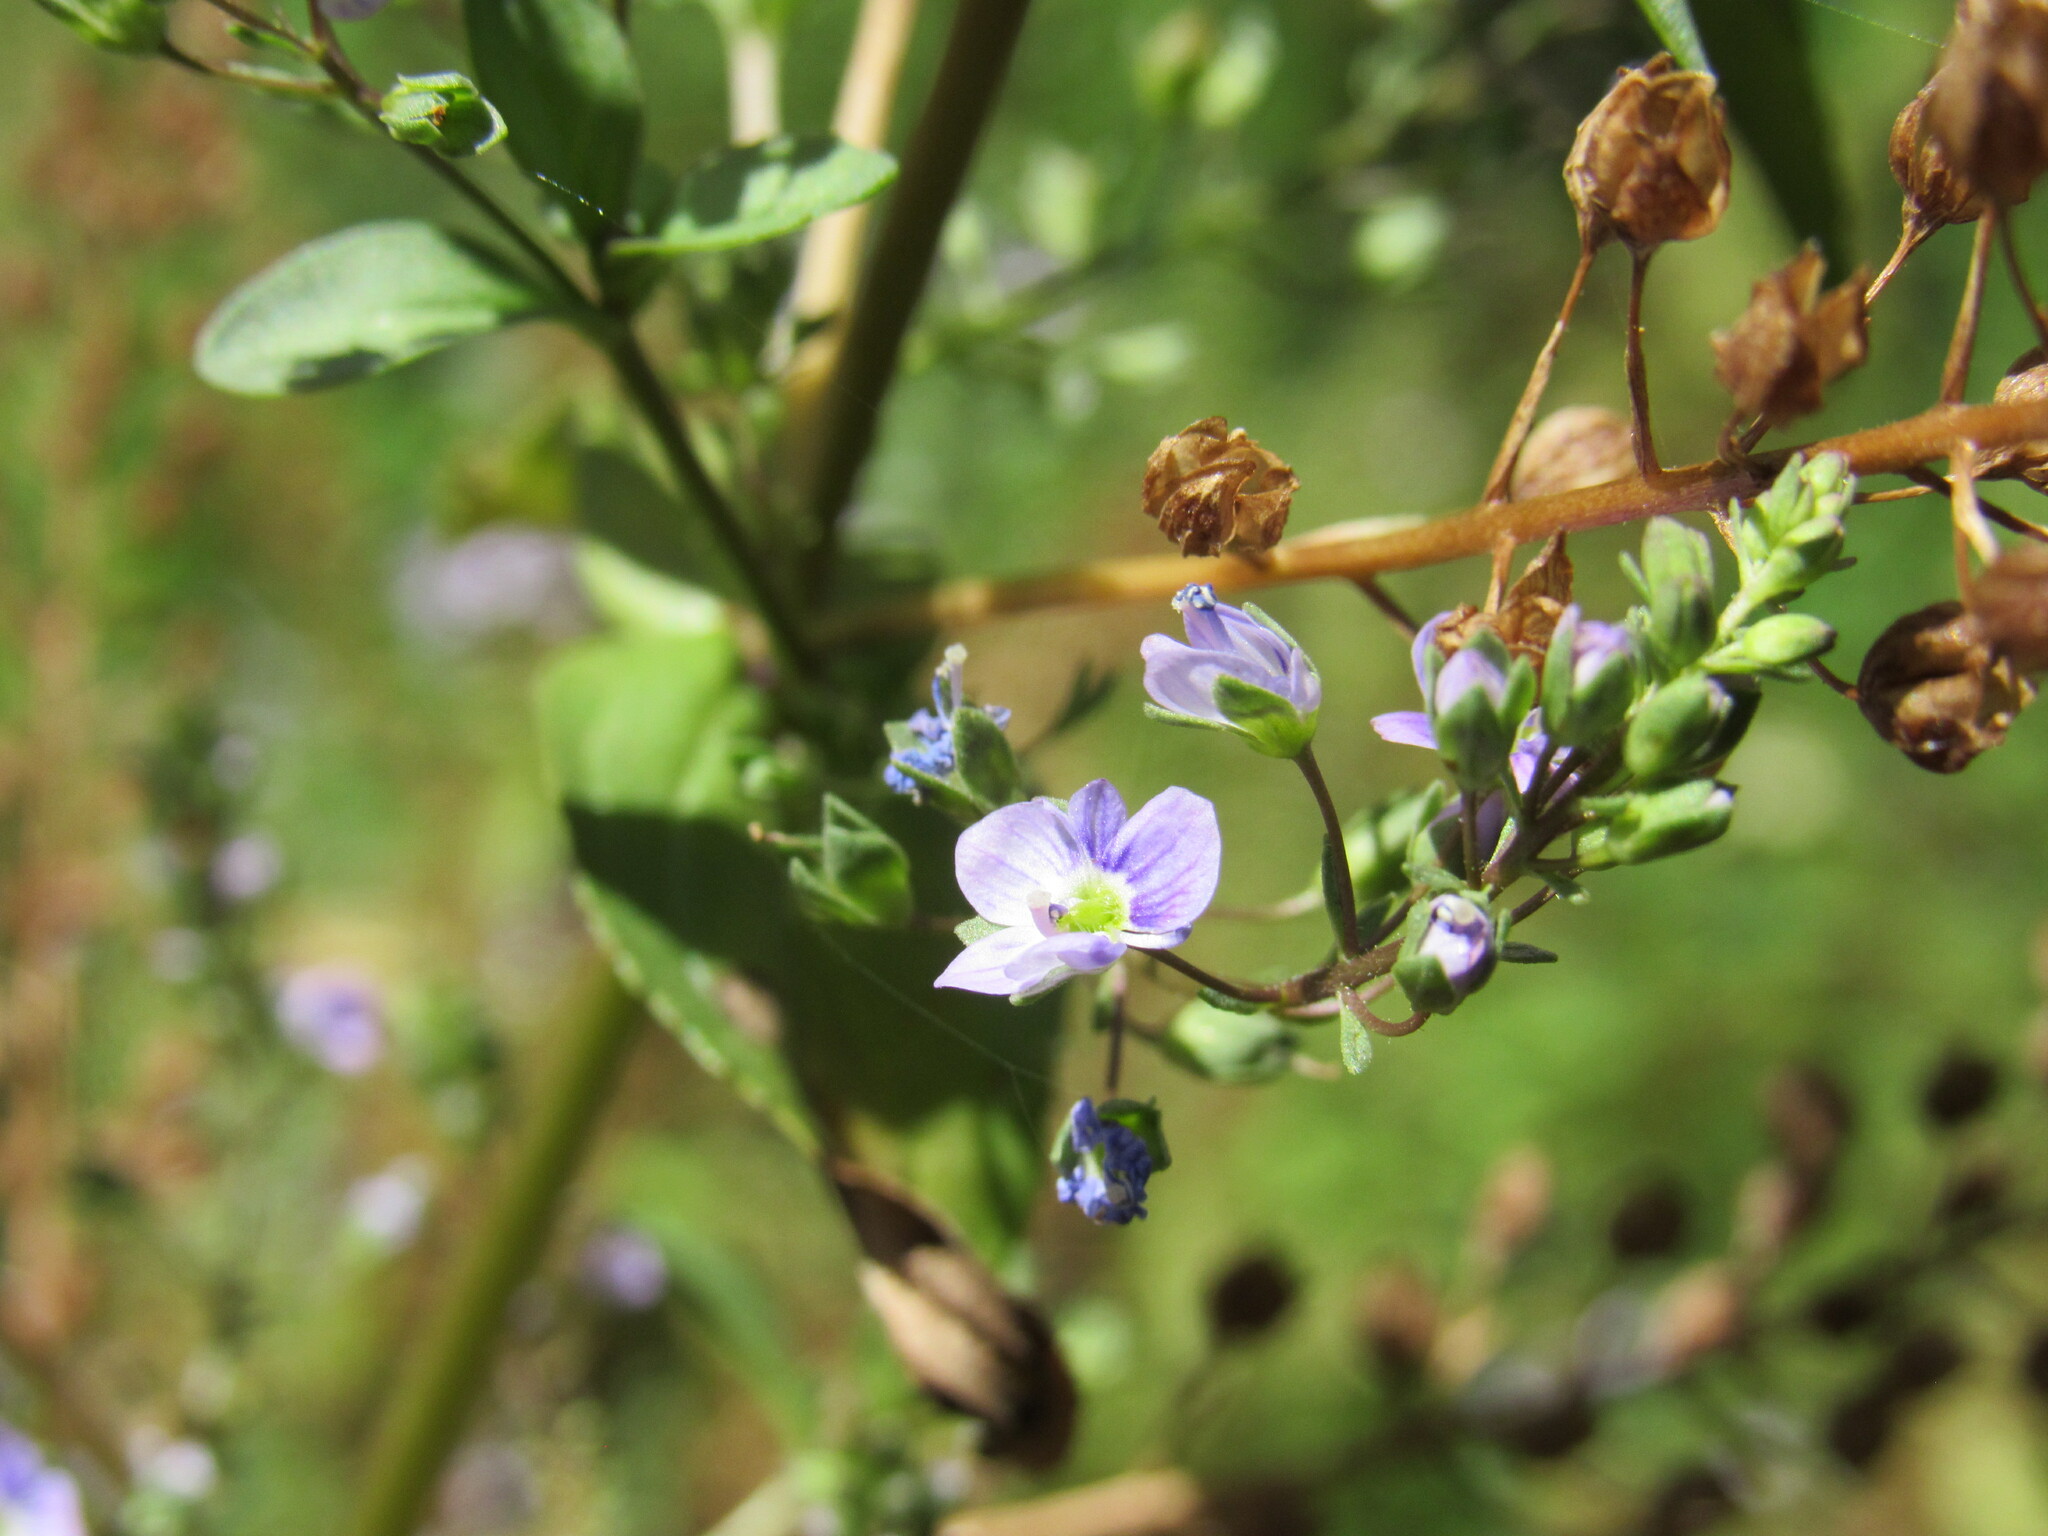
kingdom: Plantae
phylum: Tracheophyta
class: Magnoliopsida
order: Lamiales
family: Plantaginaceae
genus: Veronica
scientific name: Veronica anagallis-aquatica
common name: Water speedwell
